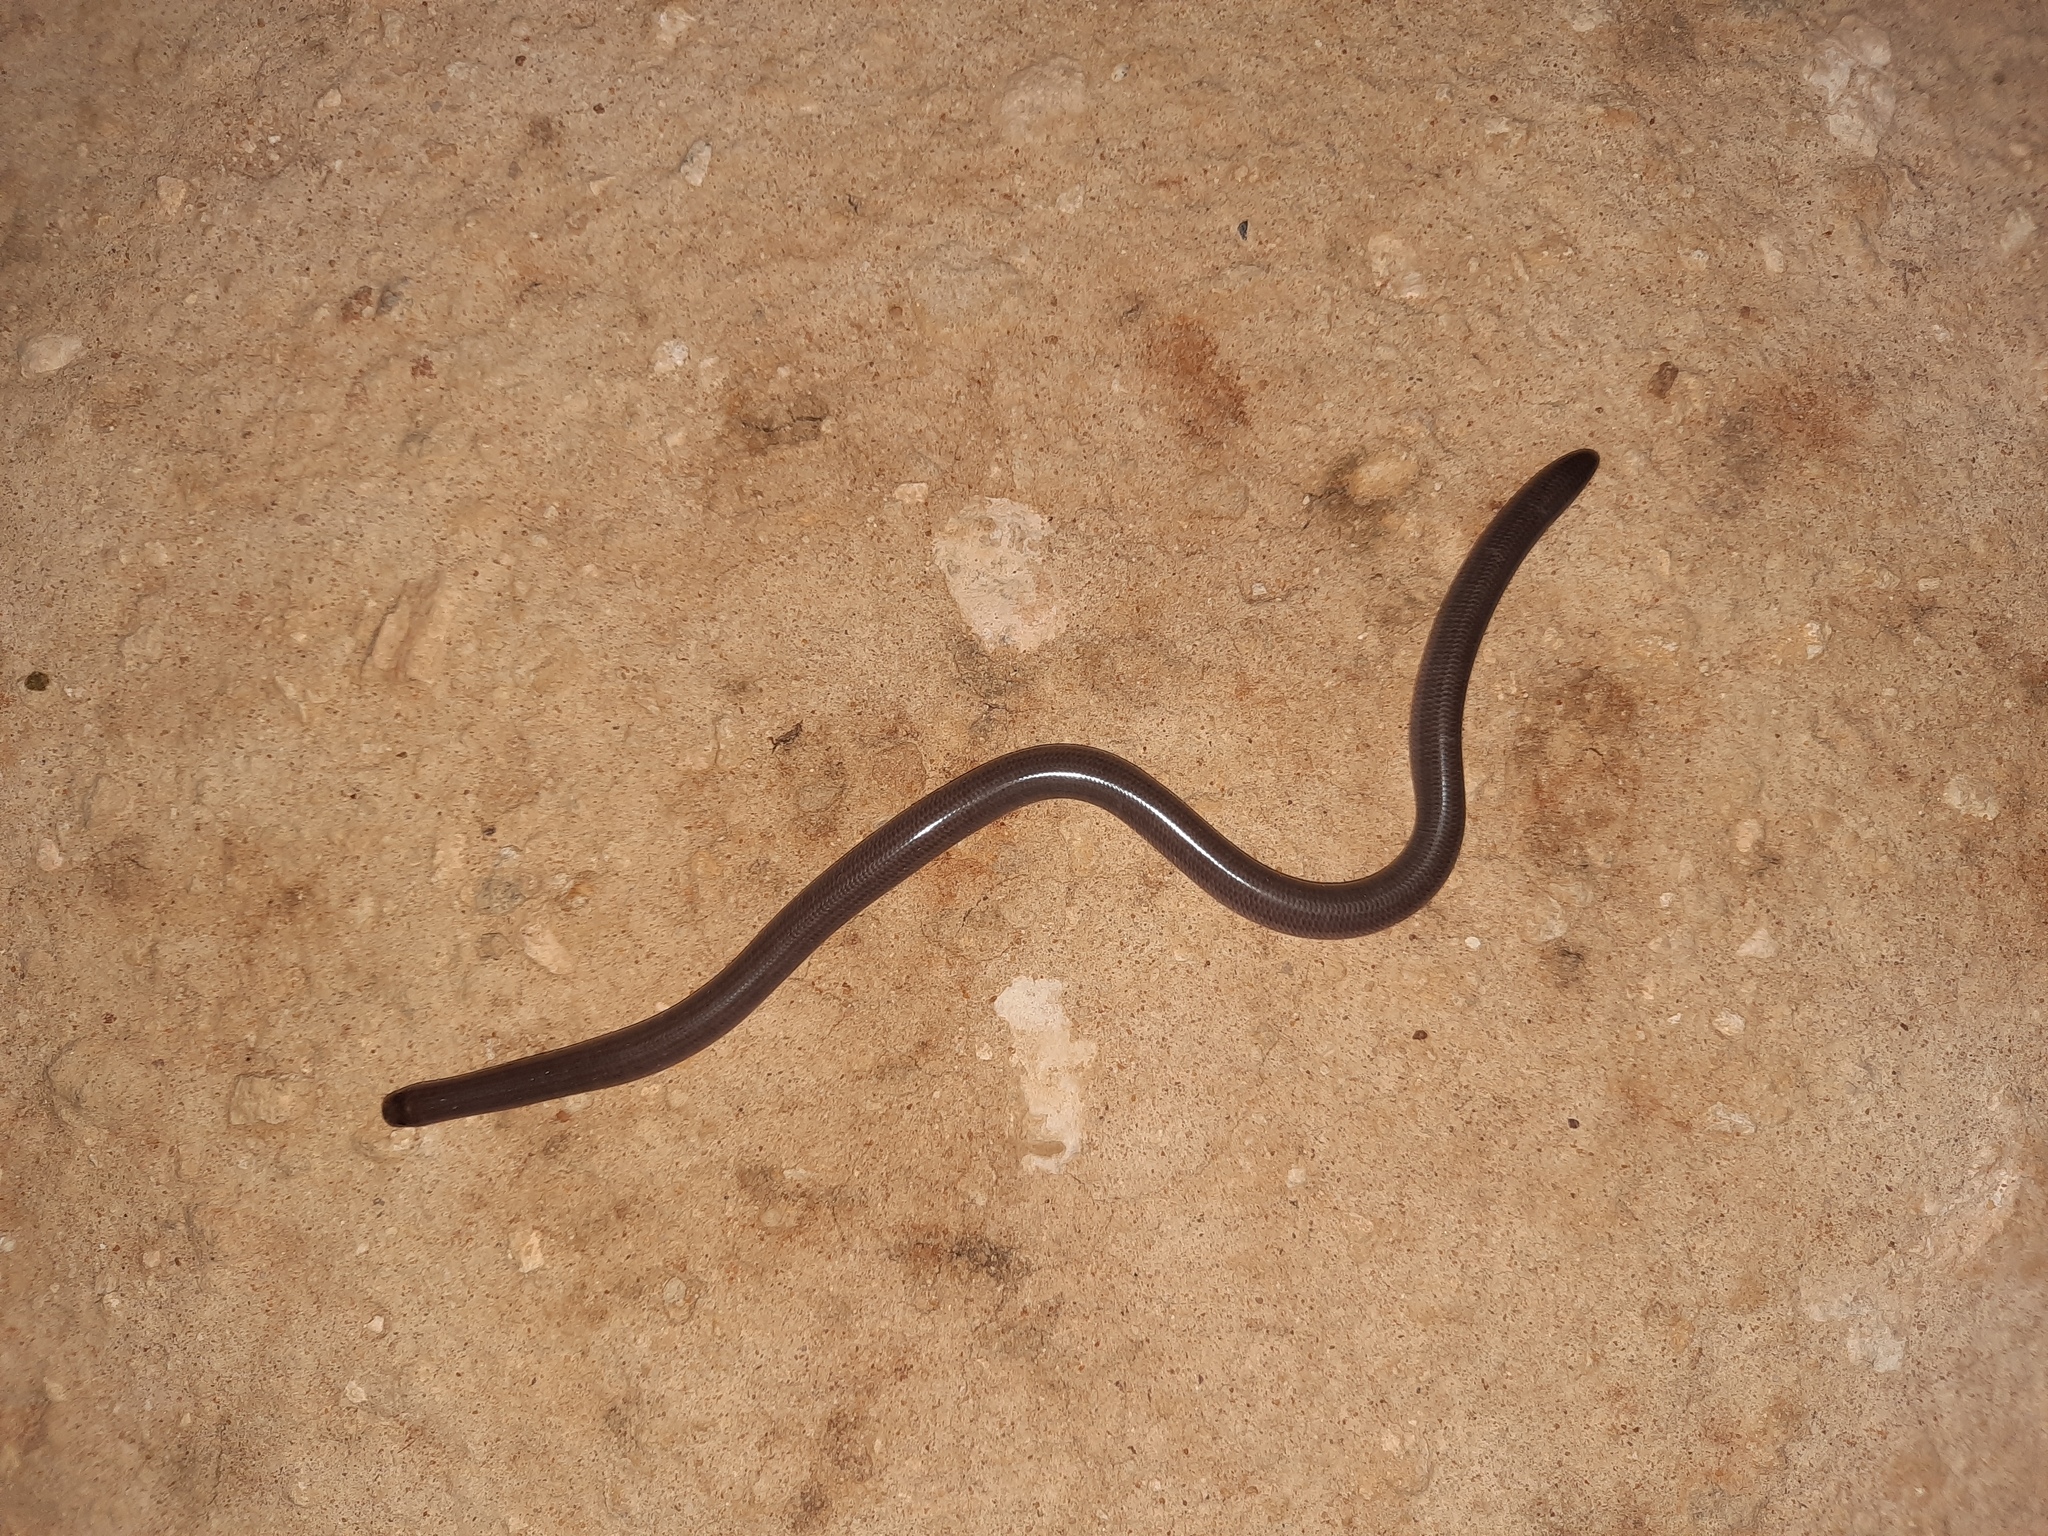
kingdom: Animalia
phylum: Chordata
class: Squamata
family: Typhlopidae
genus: Anilios
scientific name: Anilios bicolor
